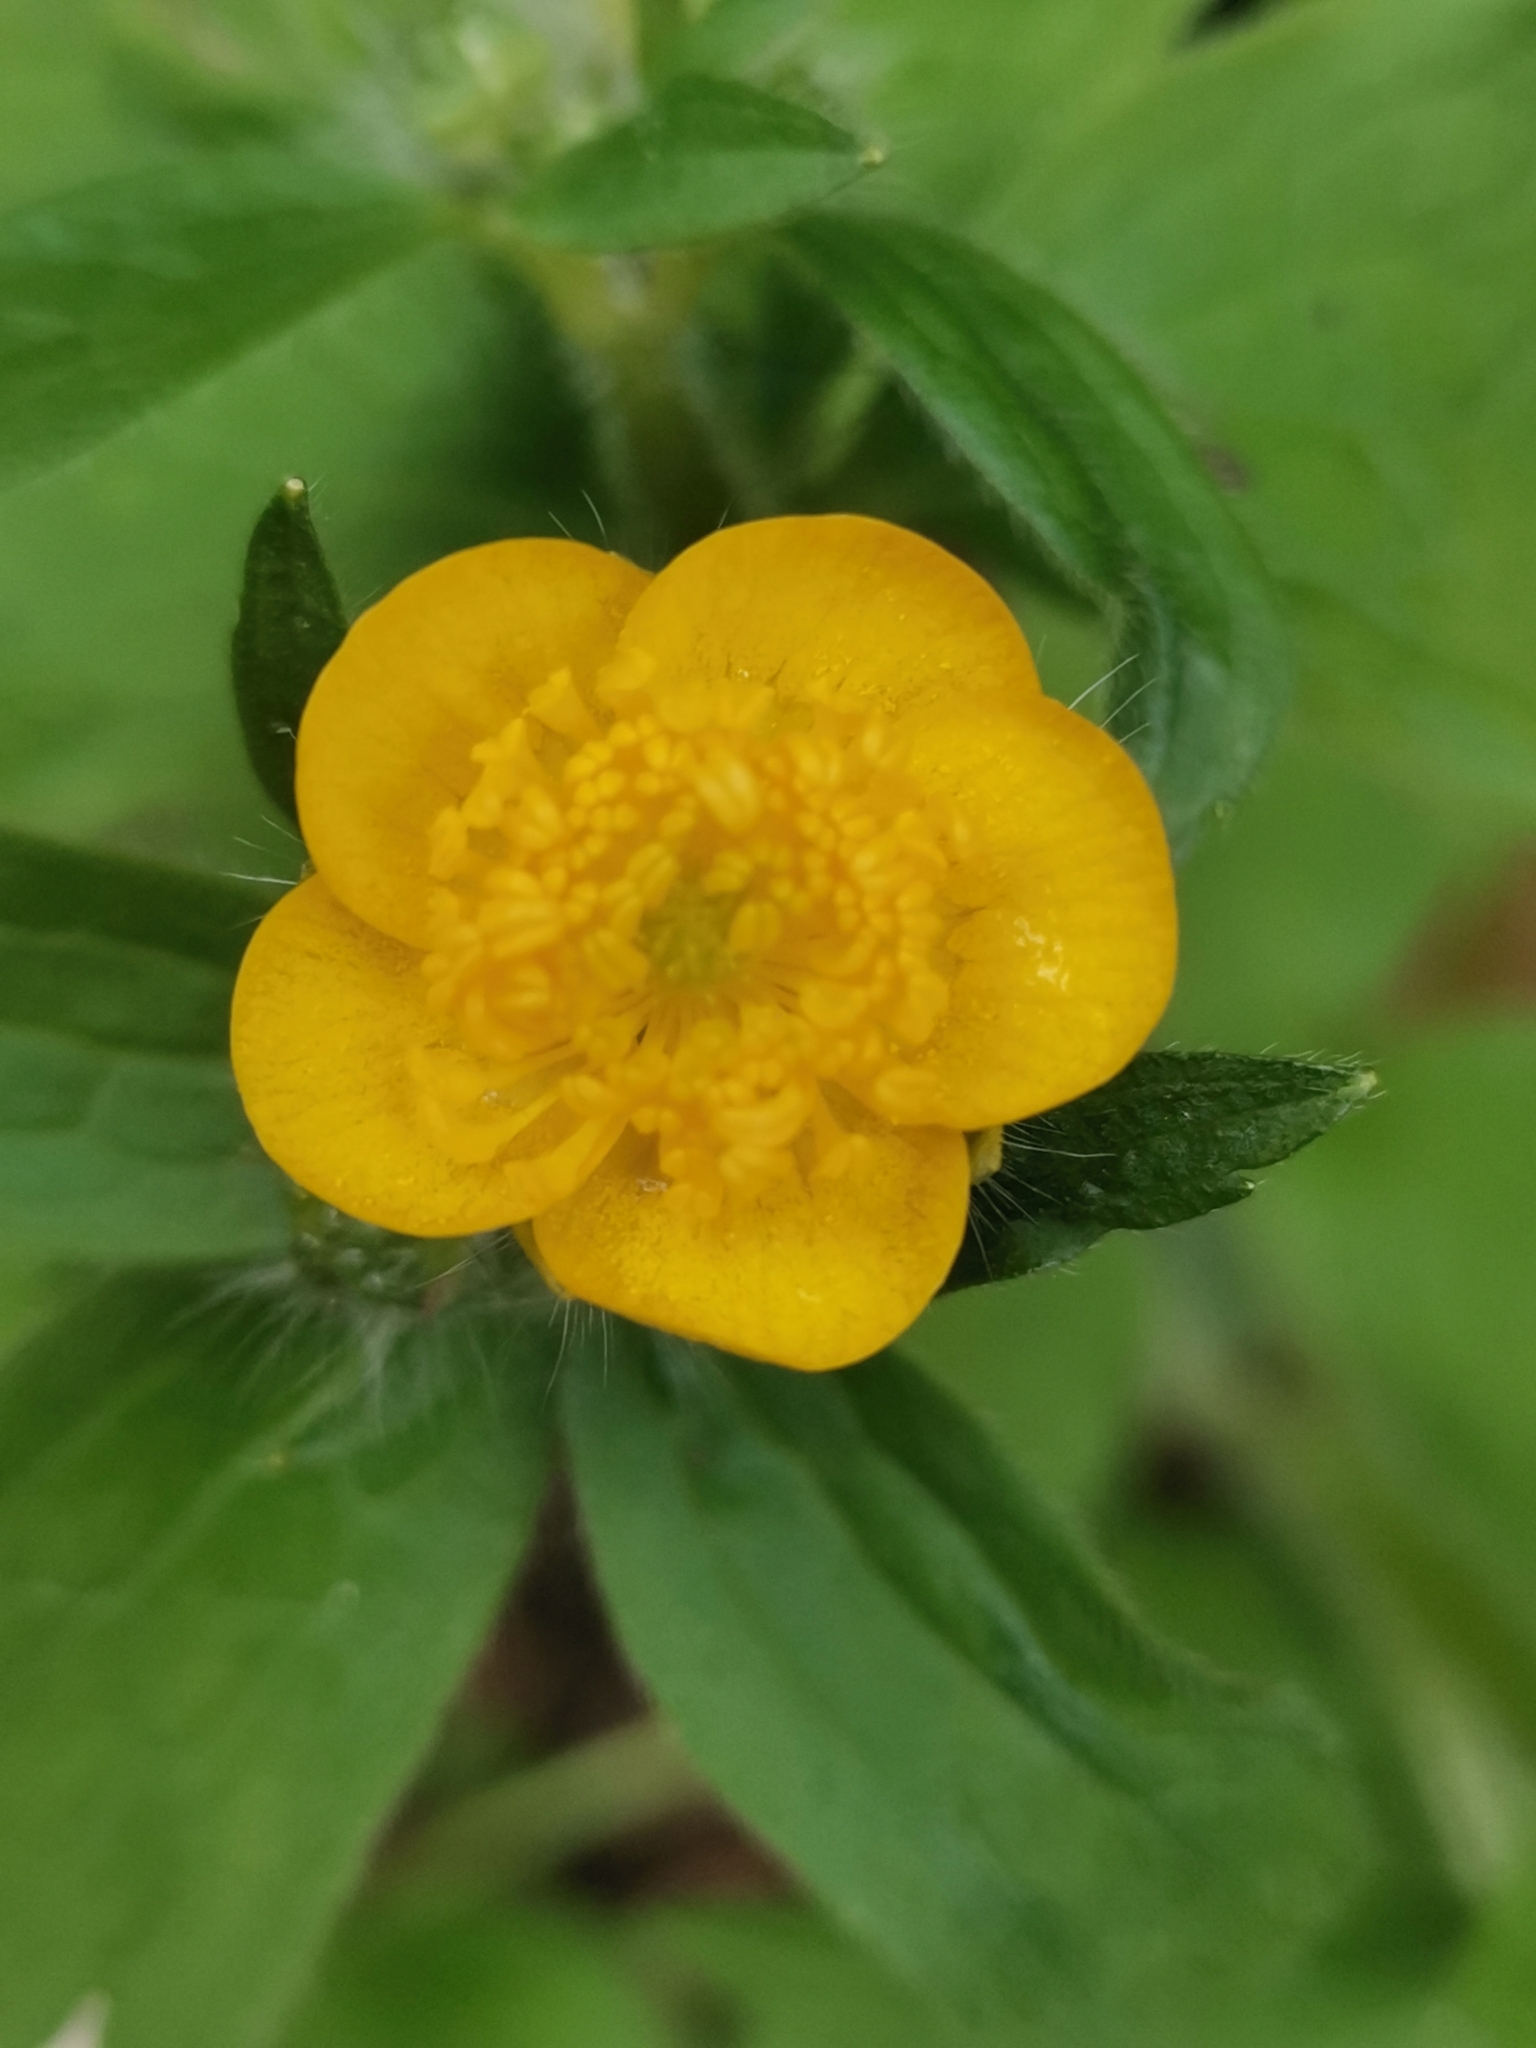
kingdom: Plantae
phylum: Tracheophyta
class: Magnoliopsida
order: Ranunculales
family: Ranunculaceae
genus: Ranunculus
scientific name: Ranunculus lanuginosus
